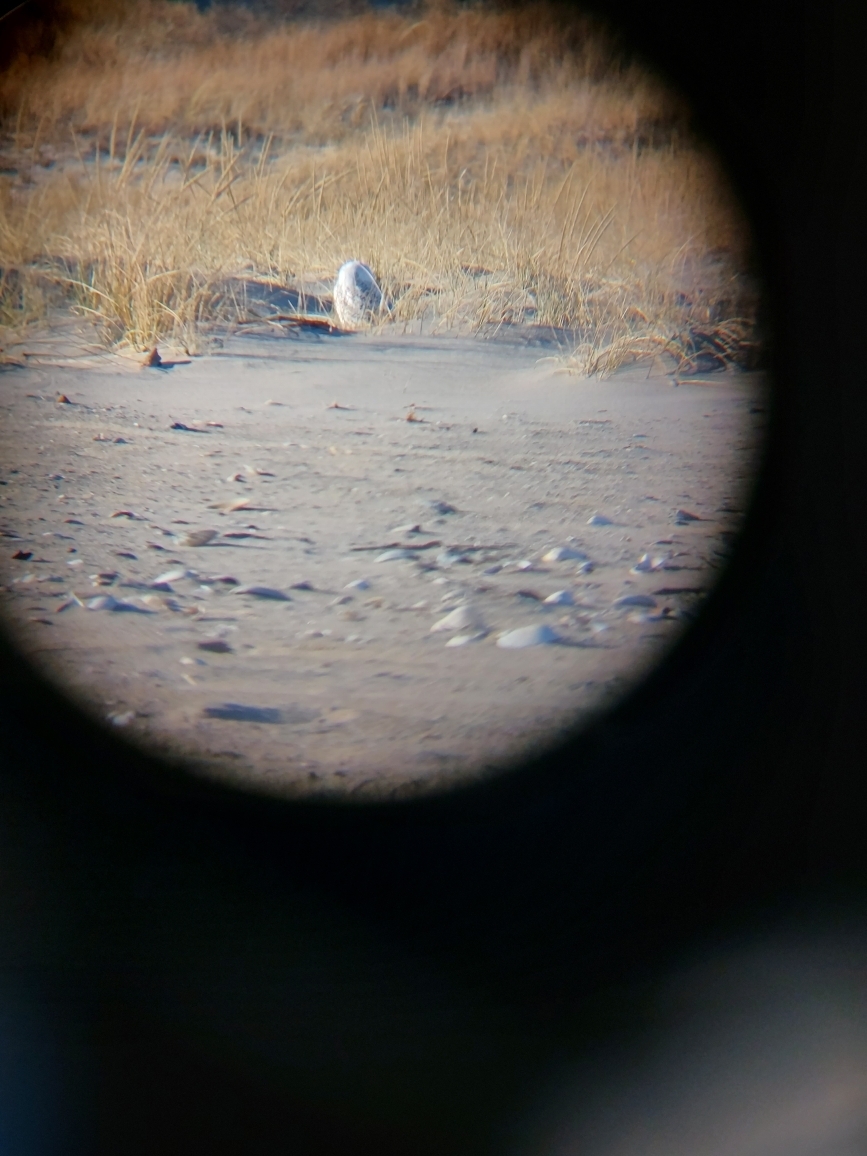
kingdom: Animalia
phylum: Chordata
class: Aves
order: Strigiformes
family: Strigidae
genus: Bubo
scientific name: Bubo scandiacus
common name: Snowy owl
